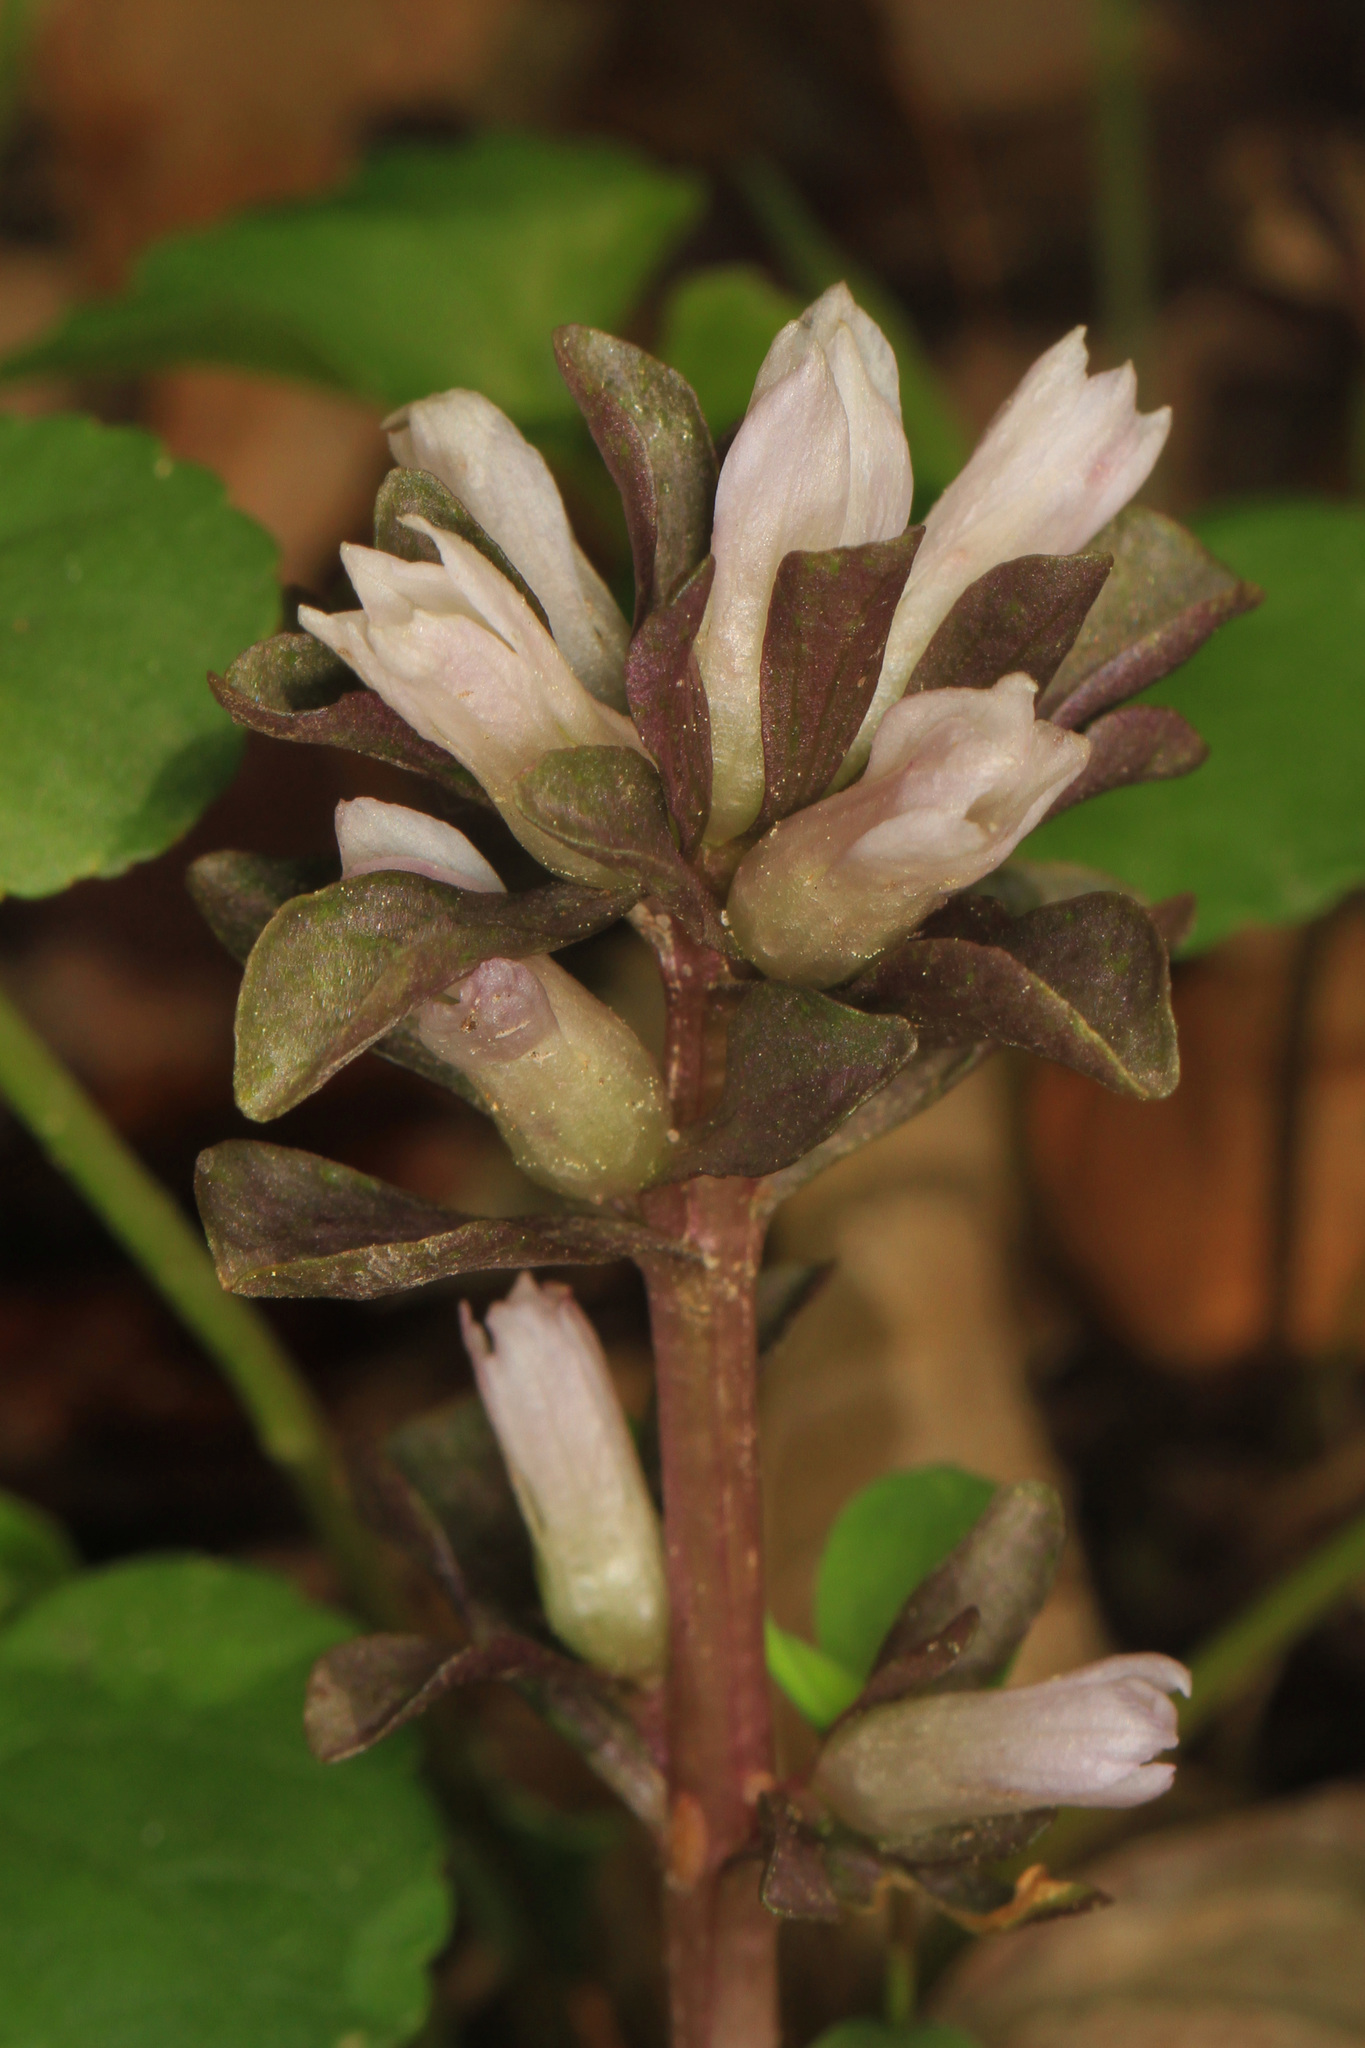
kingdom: Plantae
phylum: Tracheophyta
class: Magnoliopsida
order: Gentianales
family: Gentianaceae
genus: Obolaria
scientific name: Obolaria virginica
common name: Pennywort
